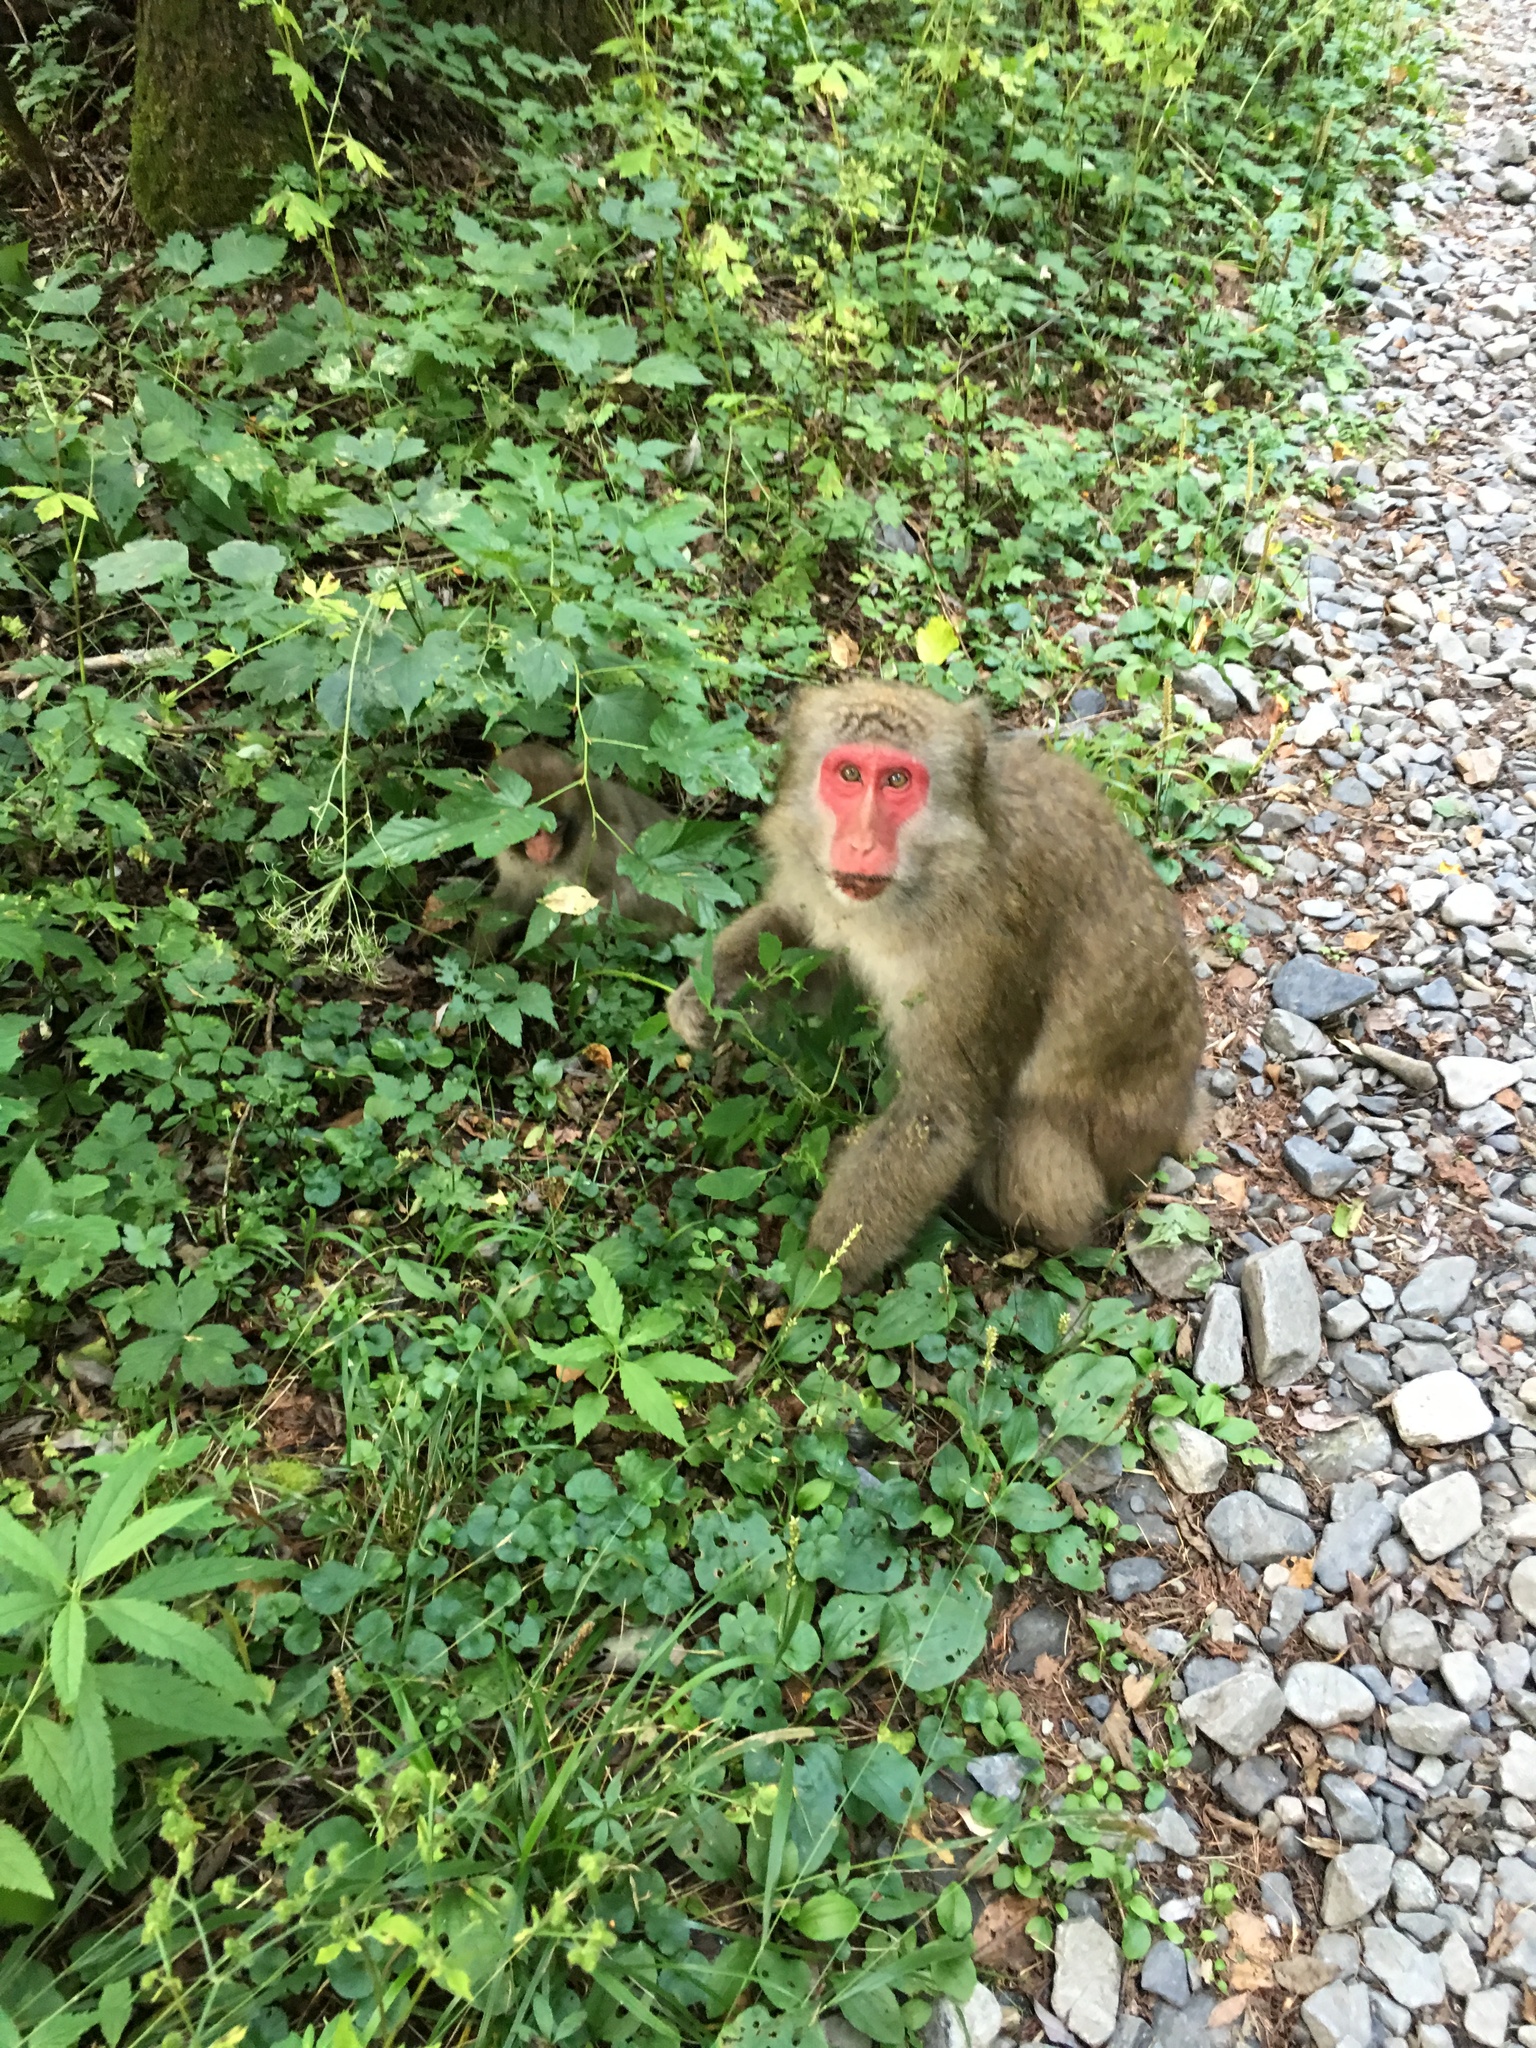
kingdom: Animalia
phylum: Chordata
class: Mammalia
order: Primates
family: Cercopithecidae
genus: Macaca
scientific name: Macaca fuscata
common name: Japanese macaque
